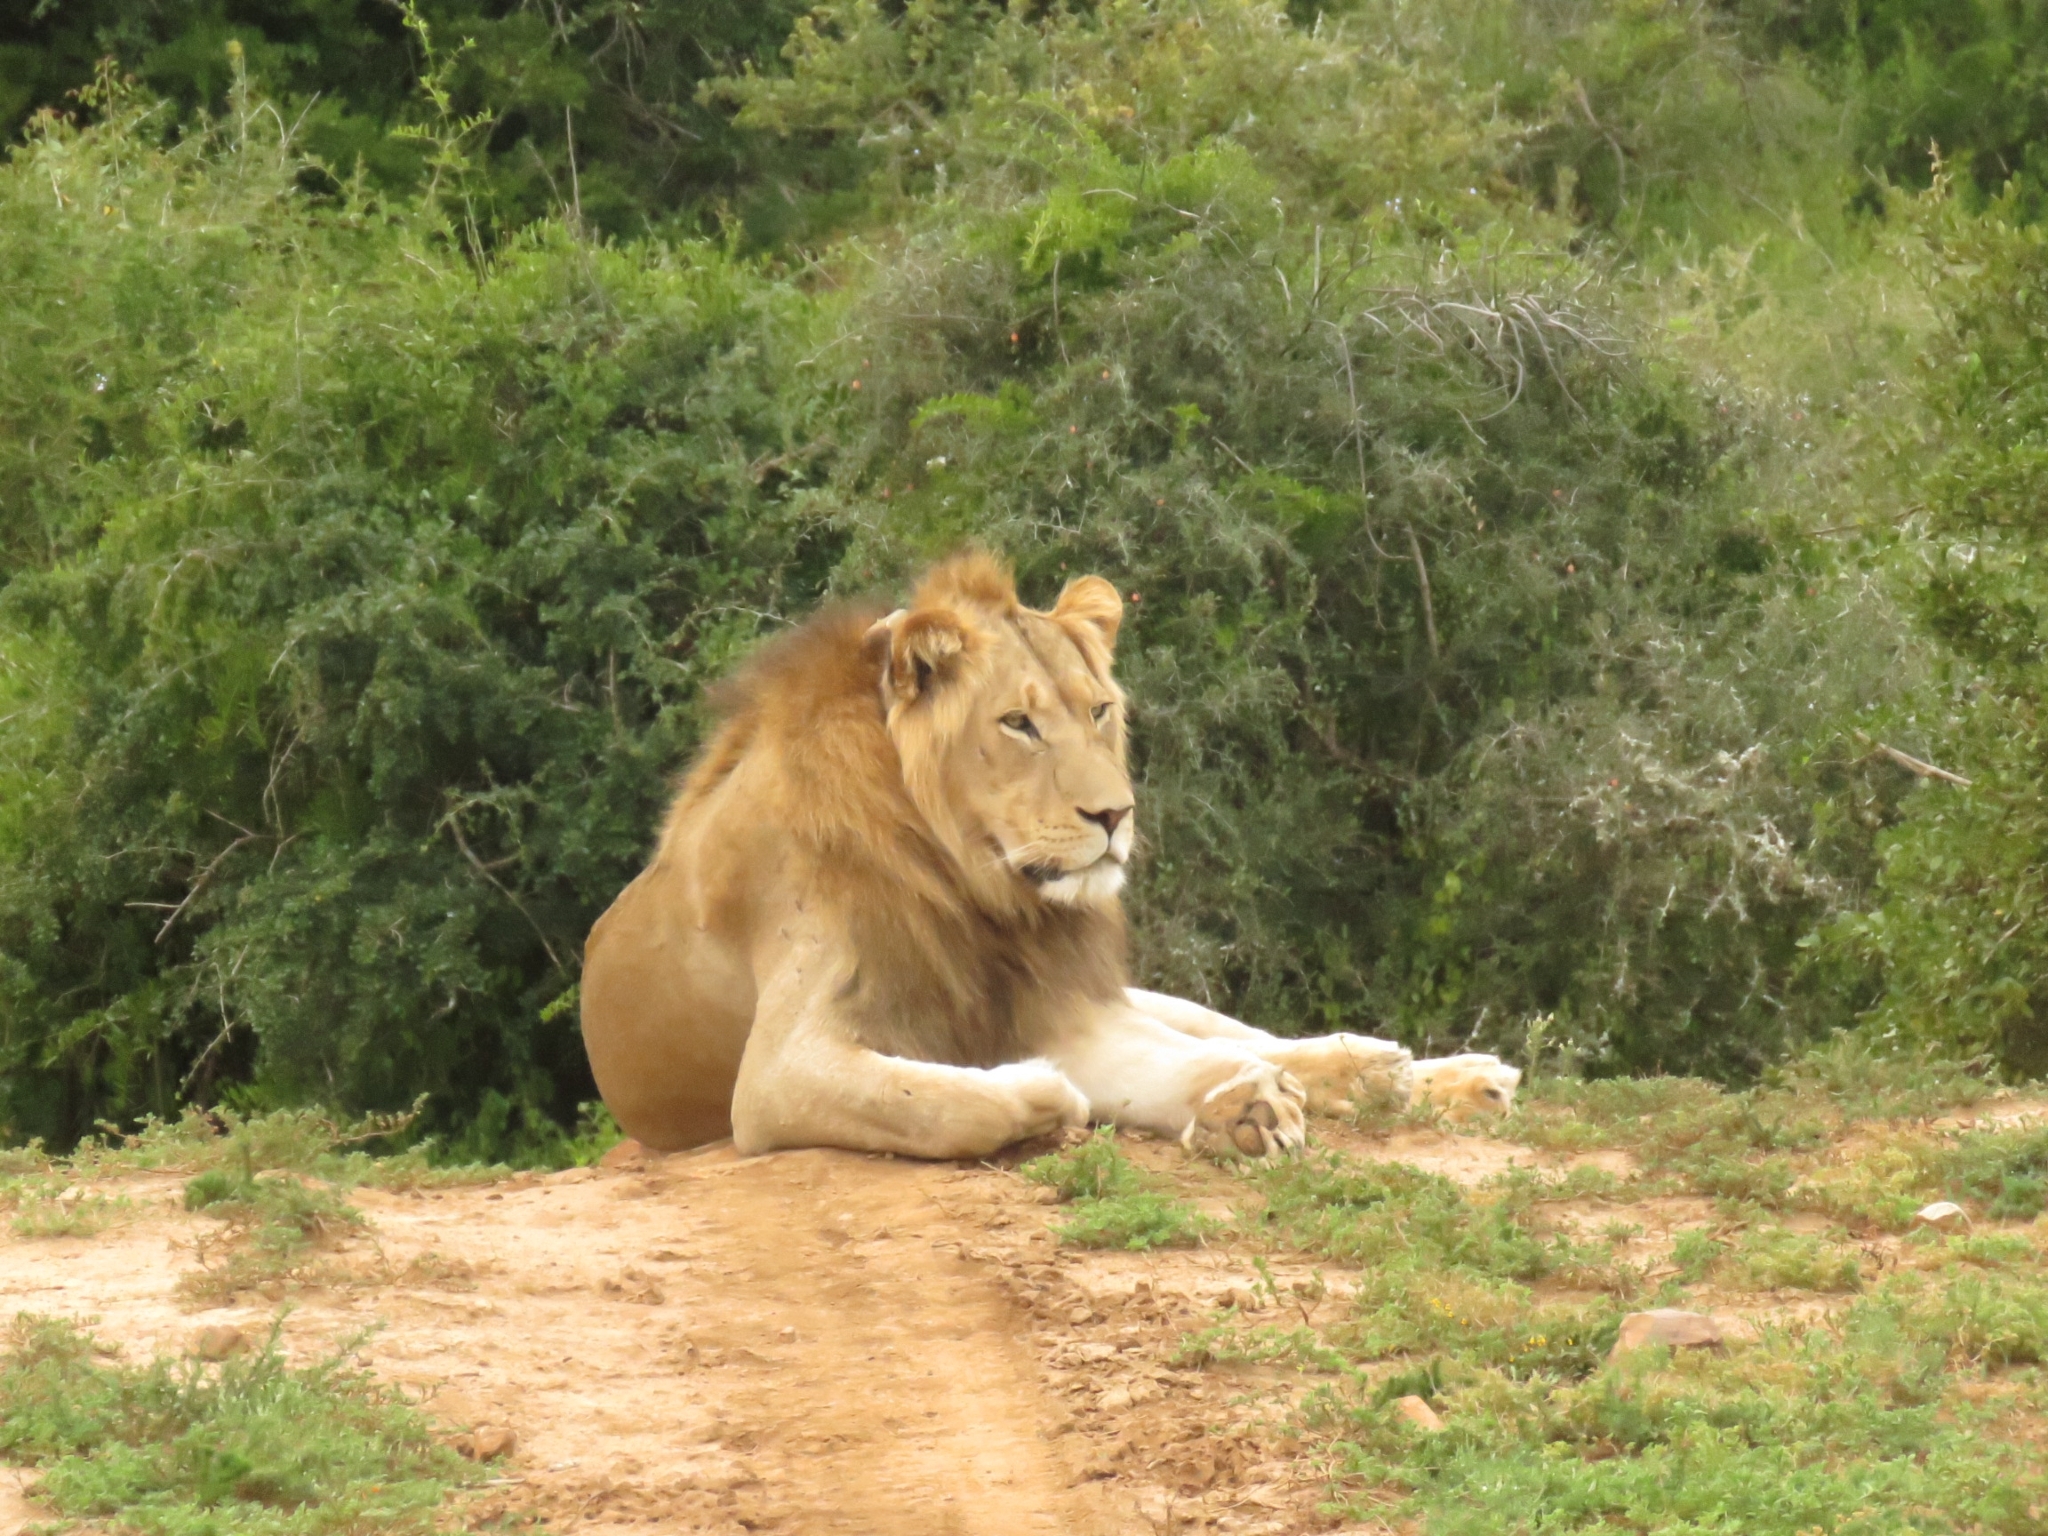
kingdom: Animalia
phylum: Chordata
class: Mammalia
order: Carnivora
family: Felidae
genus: Panthera
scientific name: Panthera leo
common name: Lion
